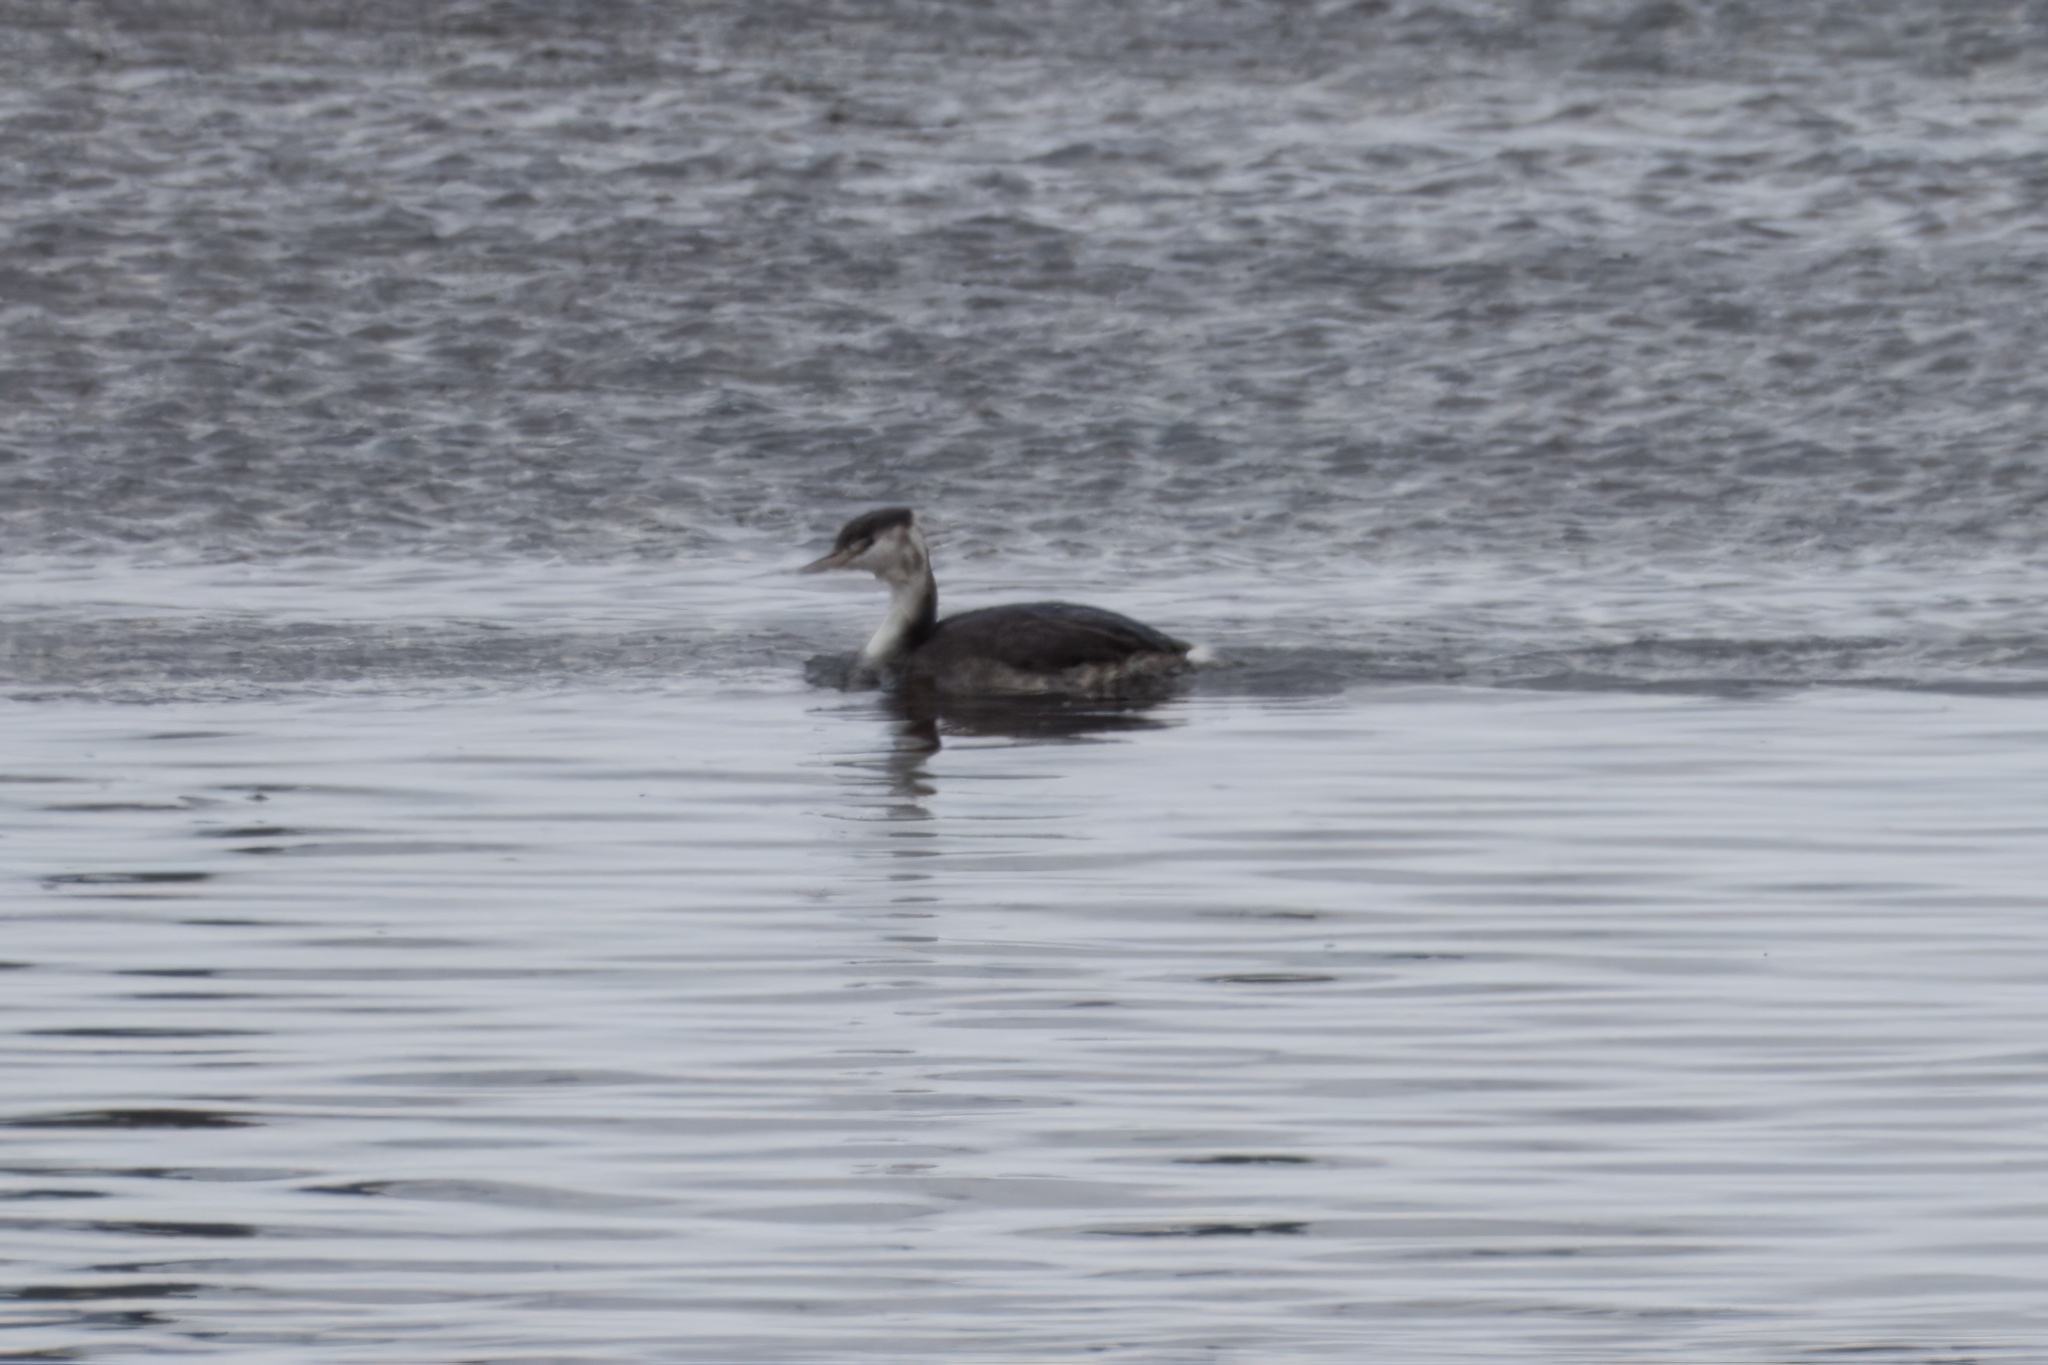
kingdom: Animalia
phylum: Chordata
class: Aves
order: Podicipediformes
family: Podicipedidae
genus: Podiceps
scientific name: Podiceps cristatus
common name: Great crested grebe
